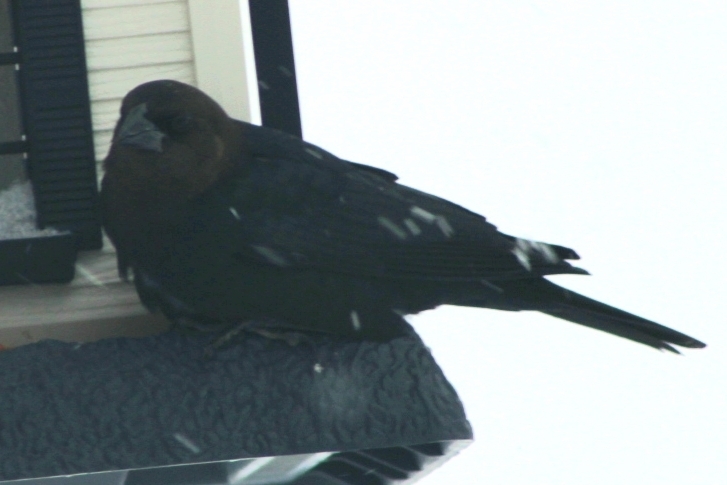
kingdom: Animalia
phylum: Chordata
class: Aves
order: Passeriformes
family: Icteridae
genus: Molothrus
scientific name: Molothrus ater
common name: Brown-headed cowbird
